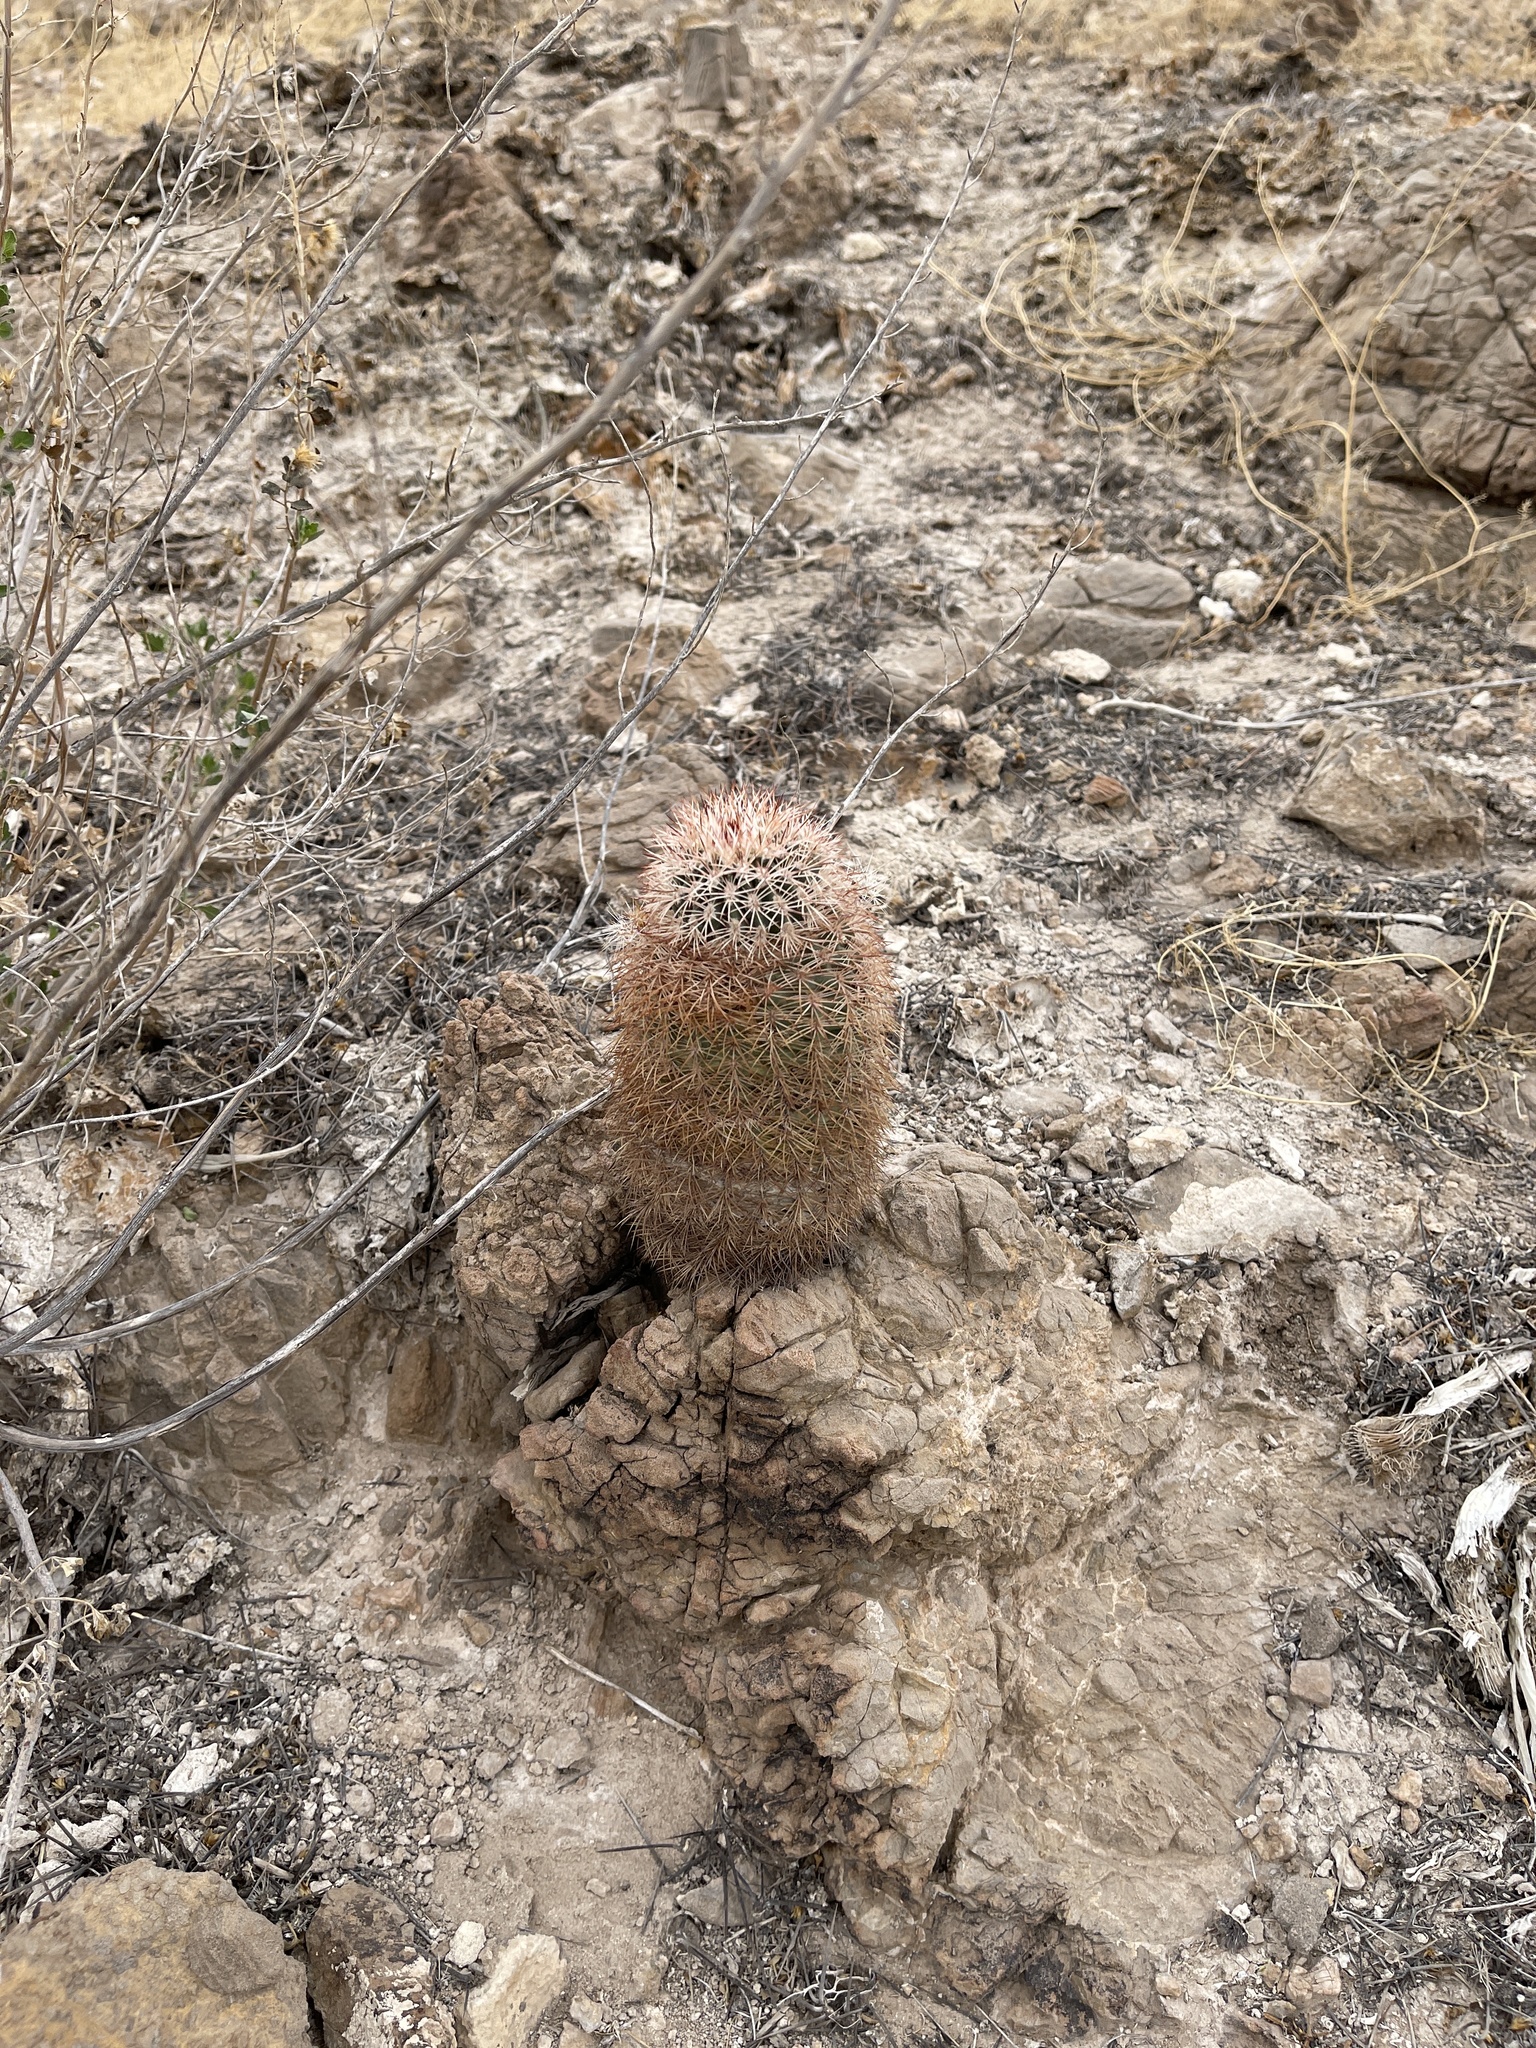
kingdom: Plantae
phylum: Tracheophyta
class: Magnoliopsida
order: Caryophyllales
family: Cactaceae
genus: Echinocereus
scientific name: Echinocereus dasyacanthus
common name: Spiny hedgehog cactus
